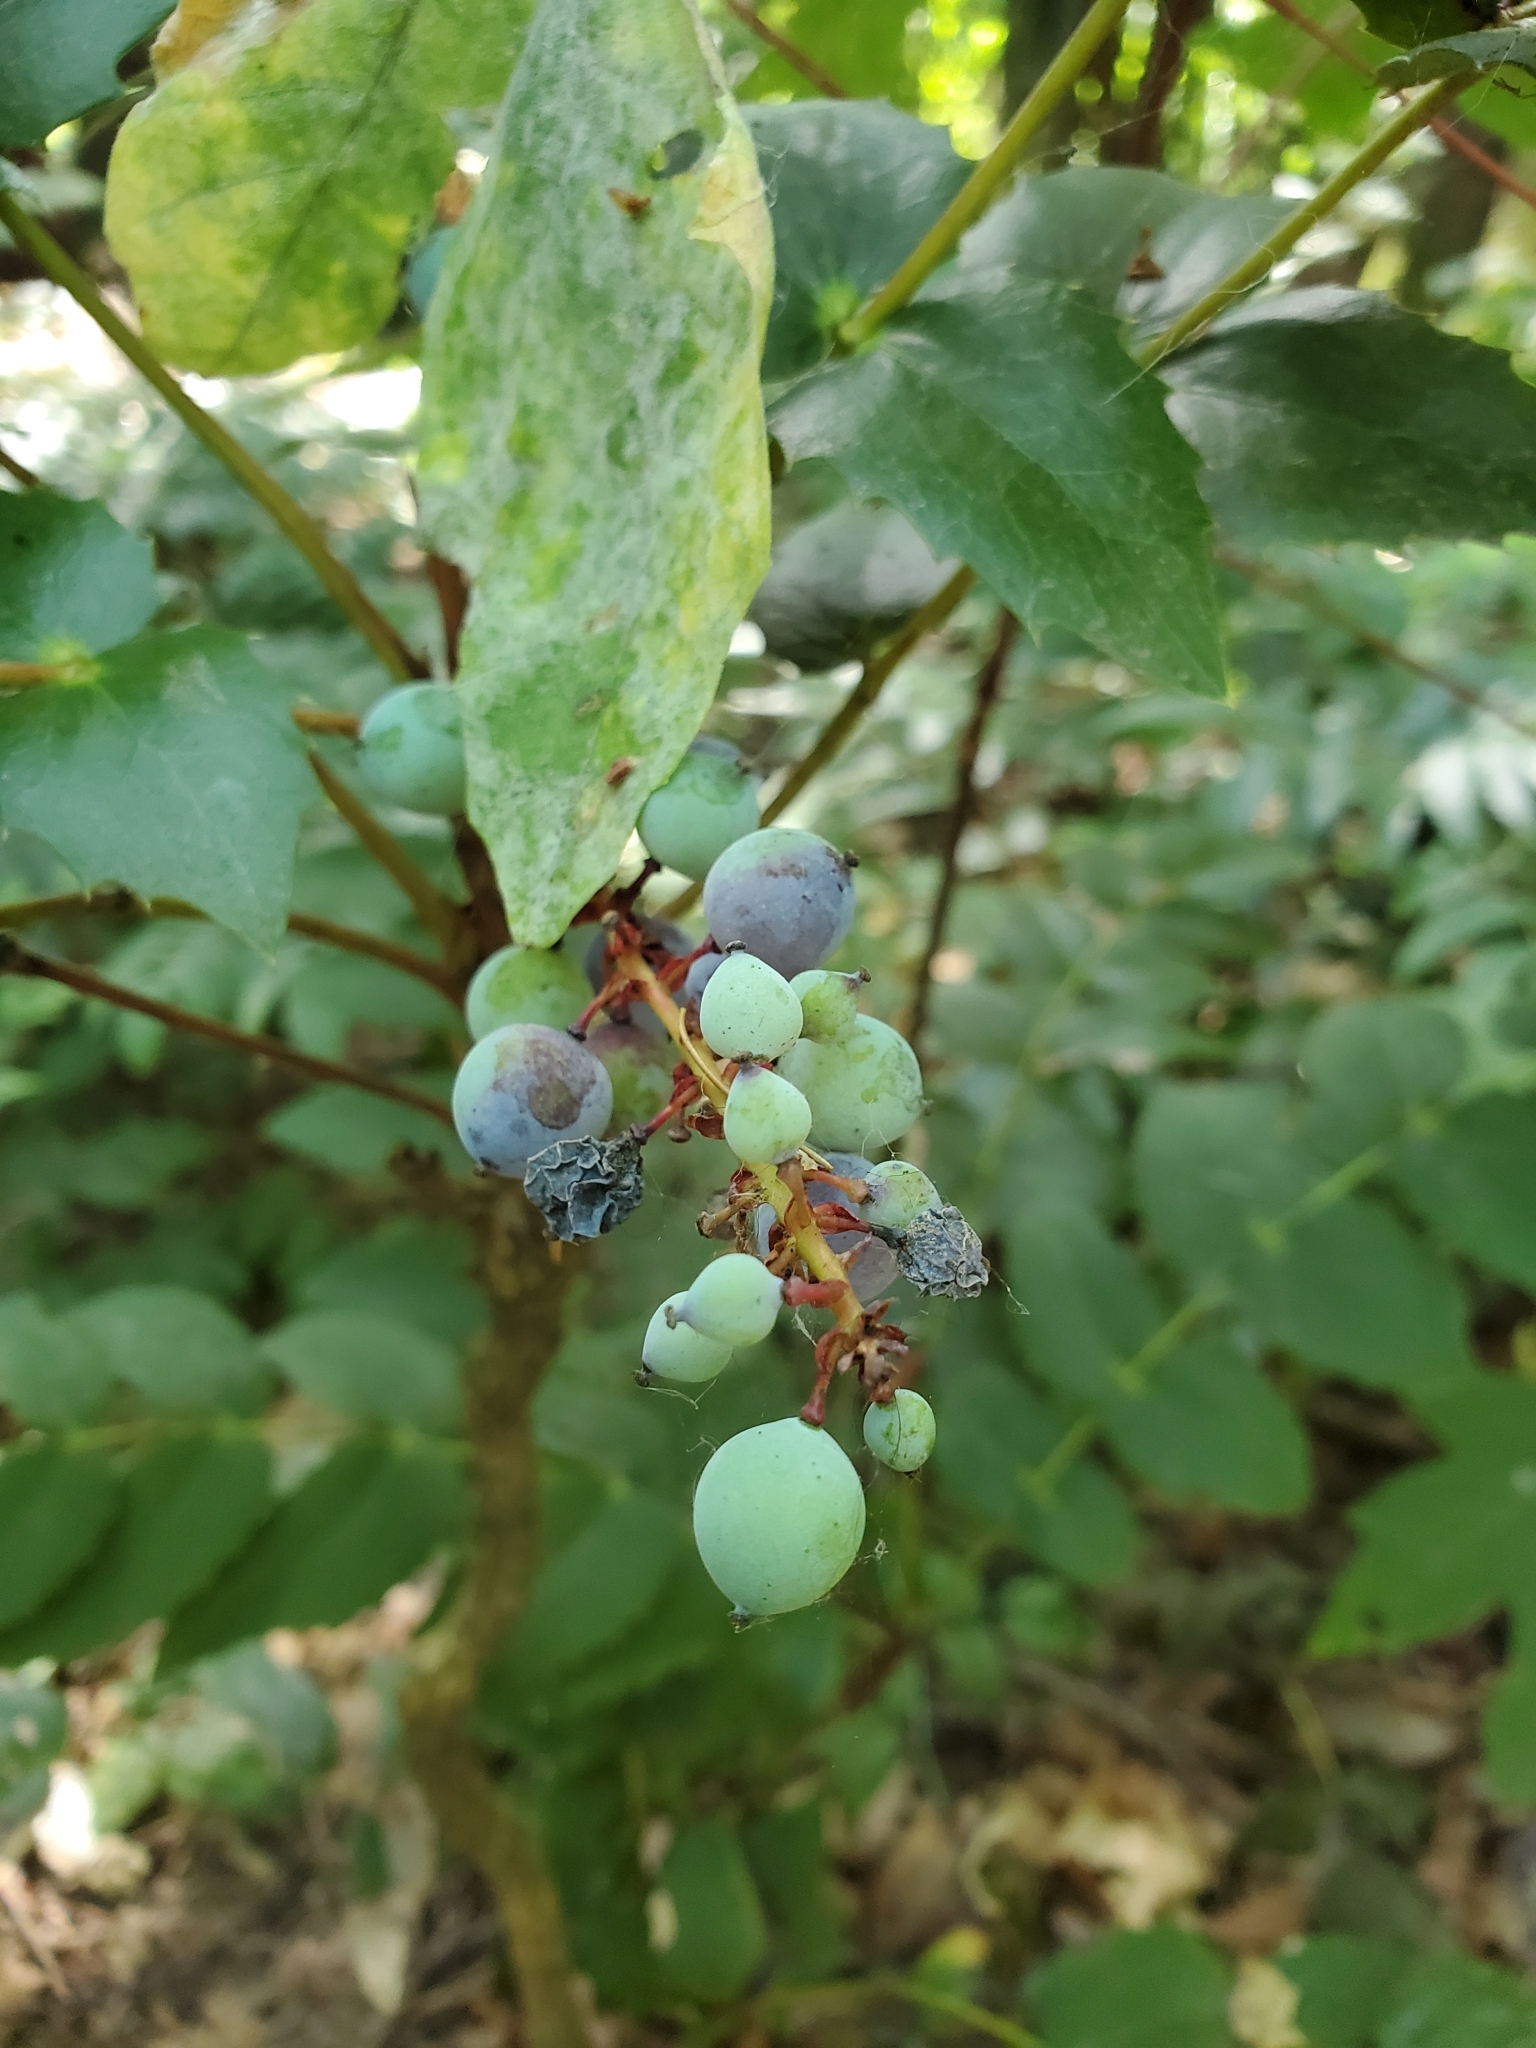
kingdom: Plantae
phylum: Tracheophyta
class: Magnoliopsida
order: Ranunculales
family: Berberidaceae
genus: Mahonia
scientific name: Mahonia nervosa
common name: Cascade oregon-grape
